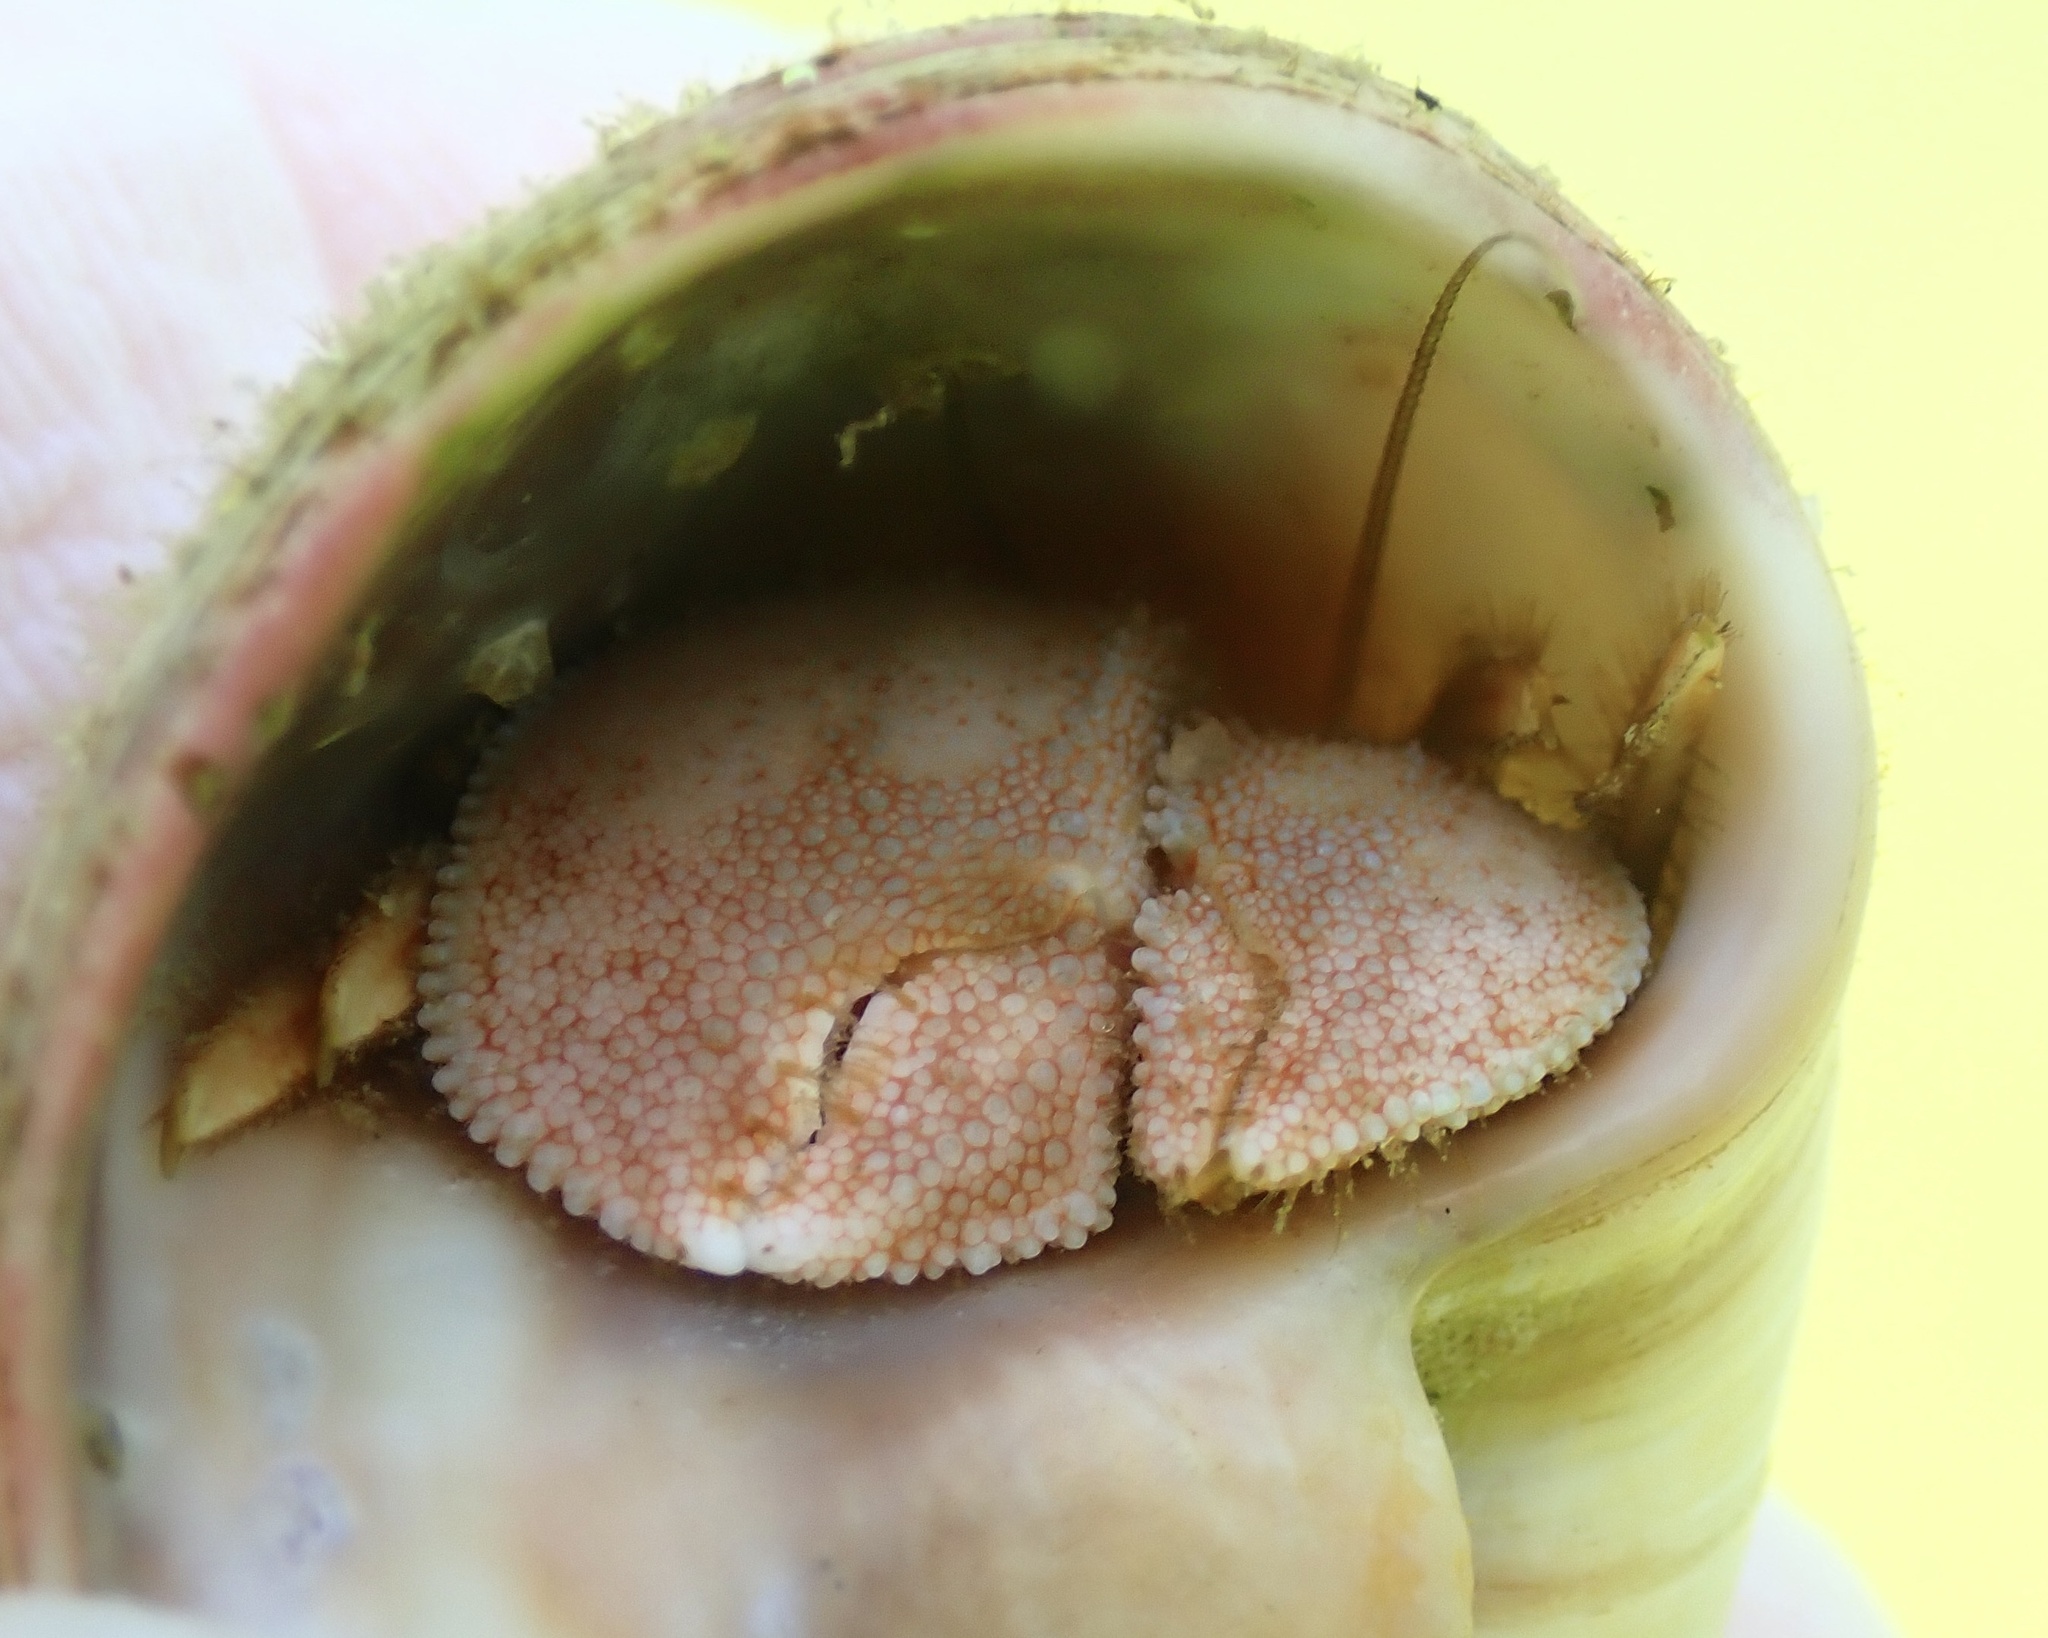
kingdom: Animalia
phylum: Arthropoda
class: Malacostraca
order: Decapoda
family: Paguridae
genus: Pagurus
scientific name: Pagurus pollicaris
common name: Flatclaw hermit
